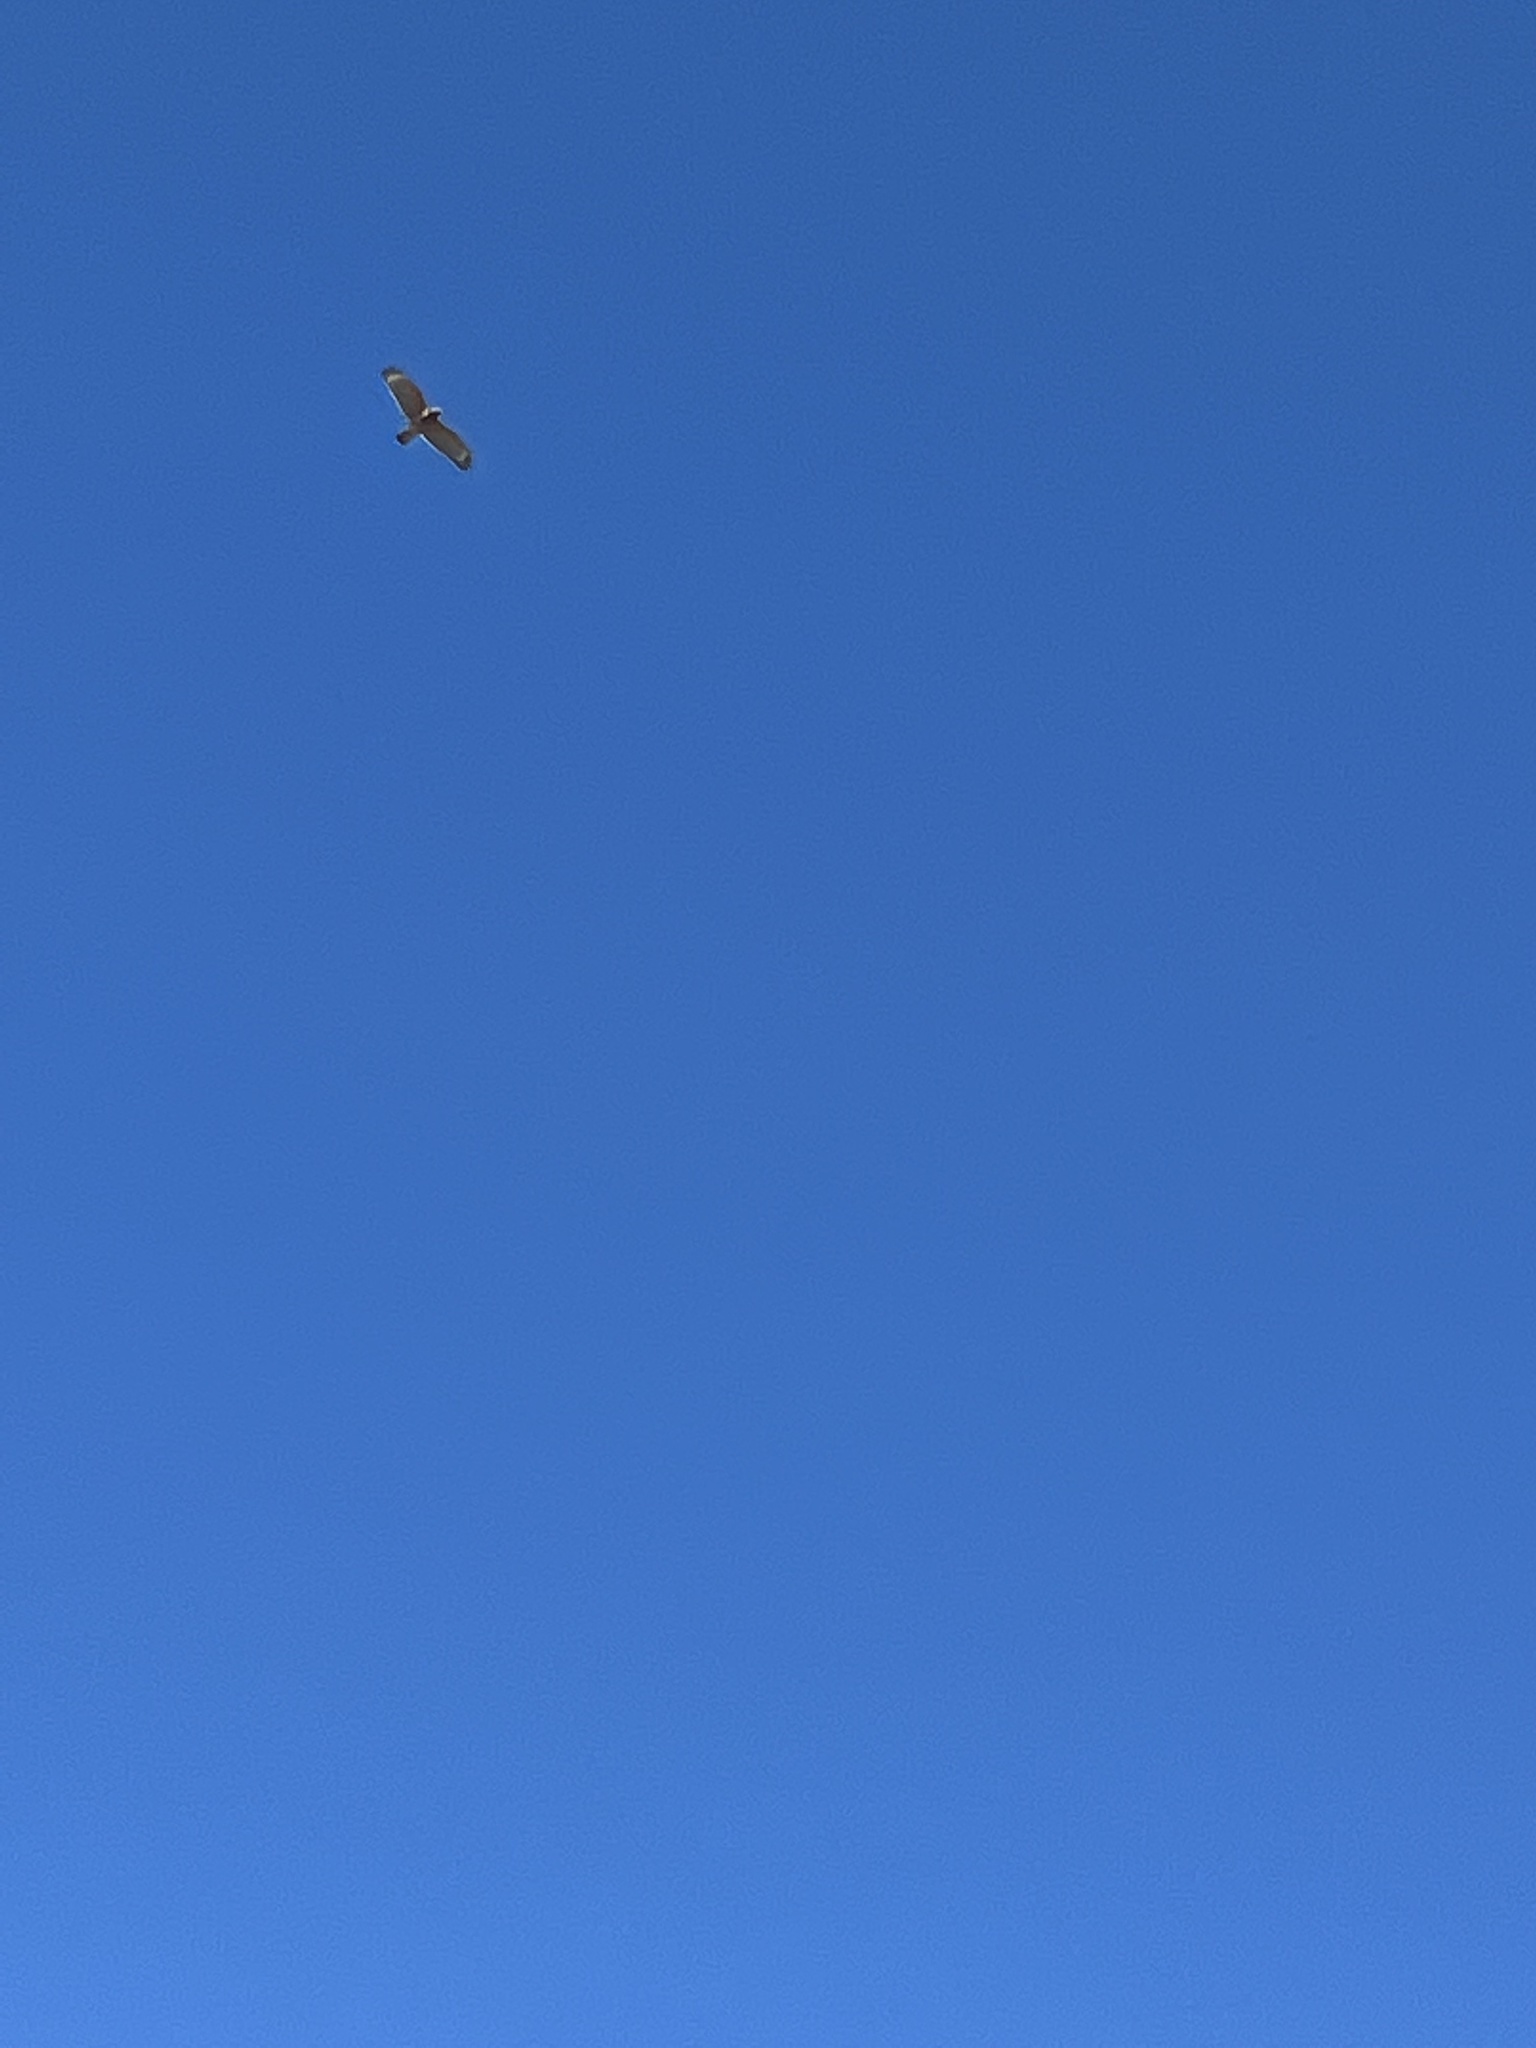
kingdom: Animalia
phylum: Chordata
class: Aves
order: Accipitriformes
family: Accipitridae
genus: Buteo
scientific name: Buteo lineatus
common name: Red-shouldered hawk
